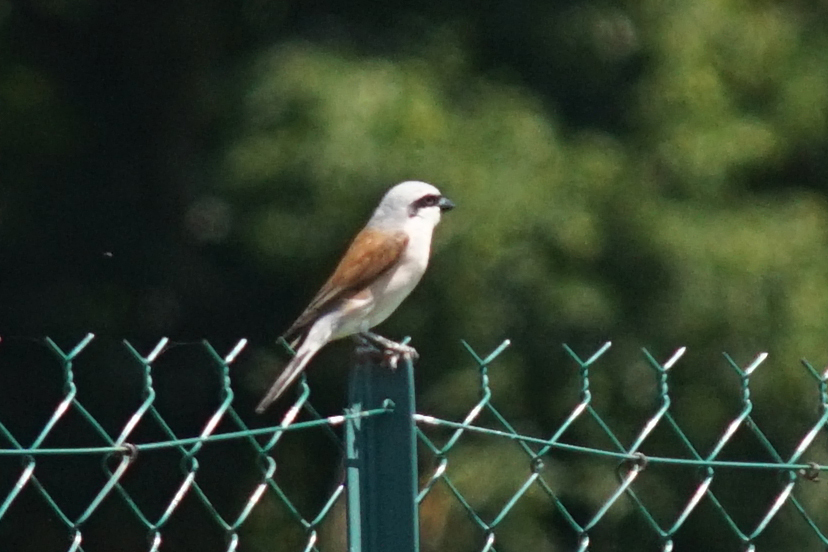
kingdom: Animalia
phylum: Chordata
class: Aves
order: Passeriformes
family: Laniidae
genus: Lanius
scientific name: Lanius collurio
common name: Red-backed shrike
